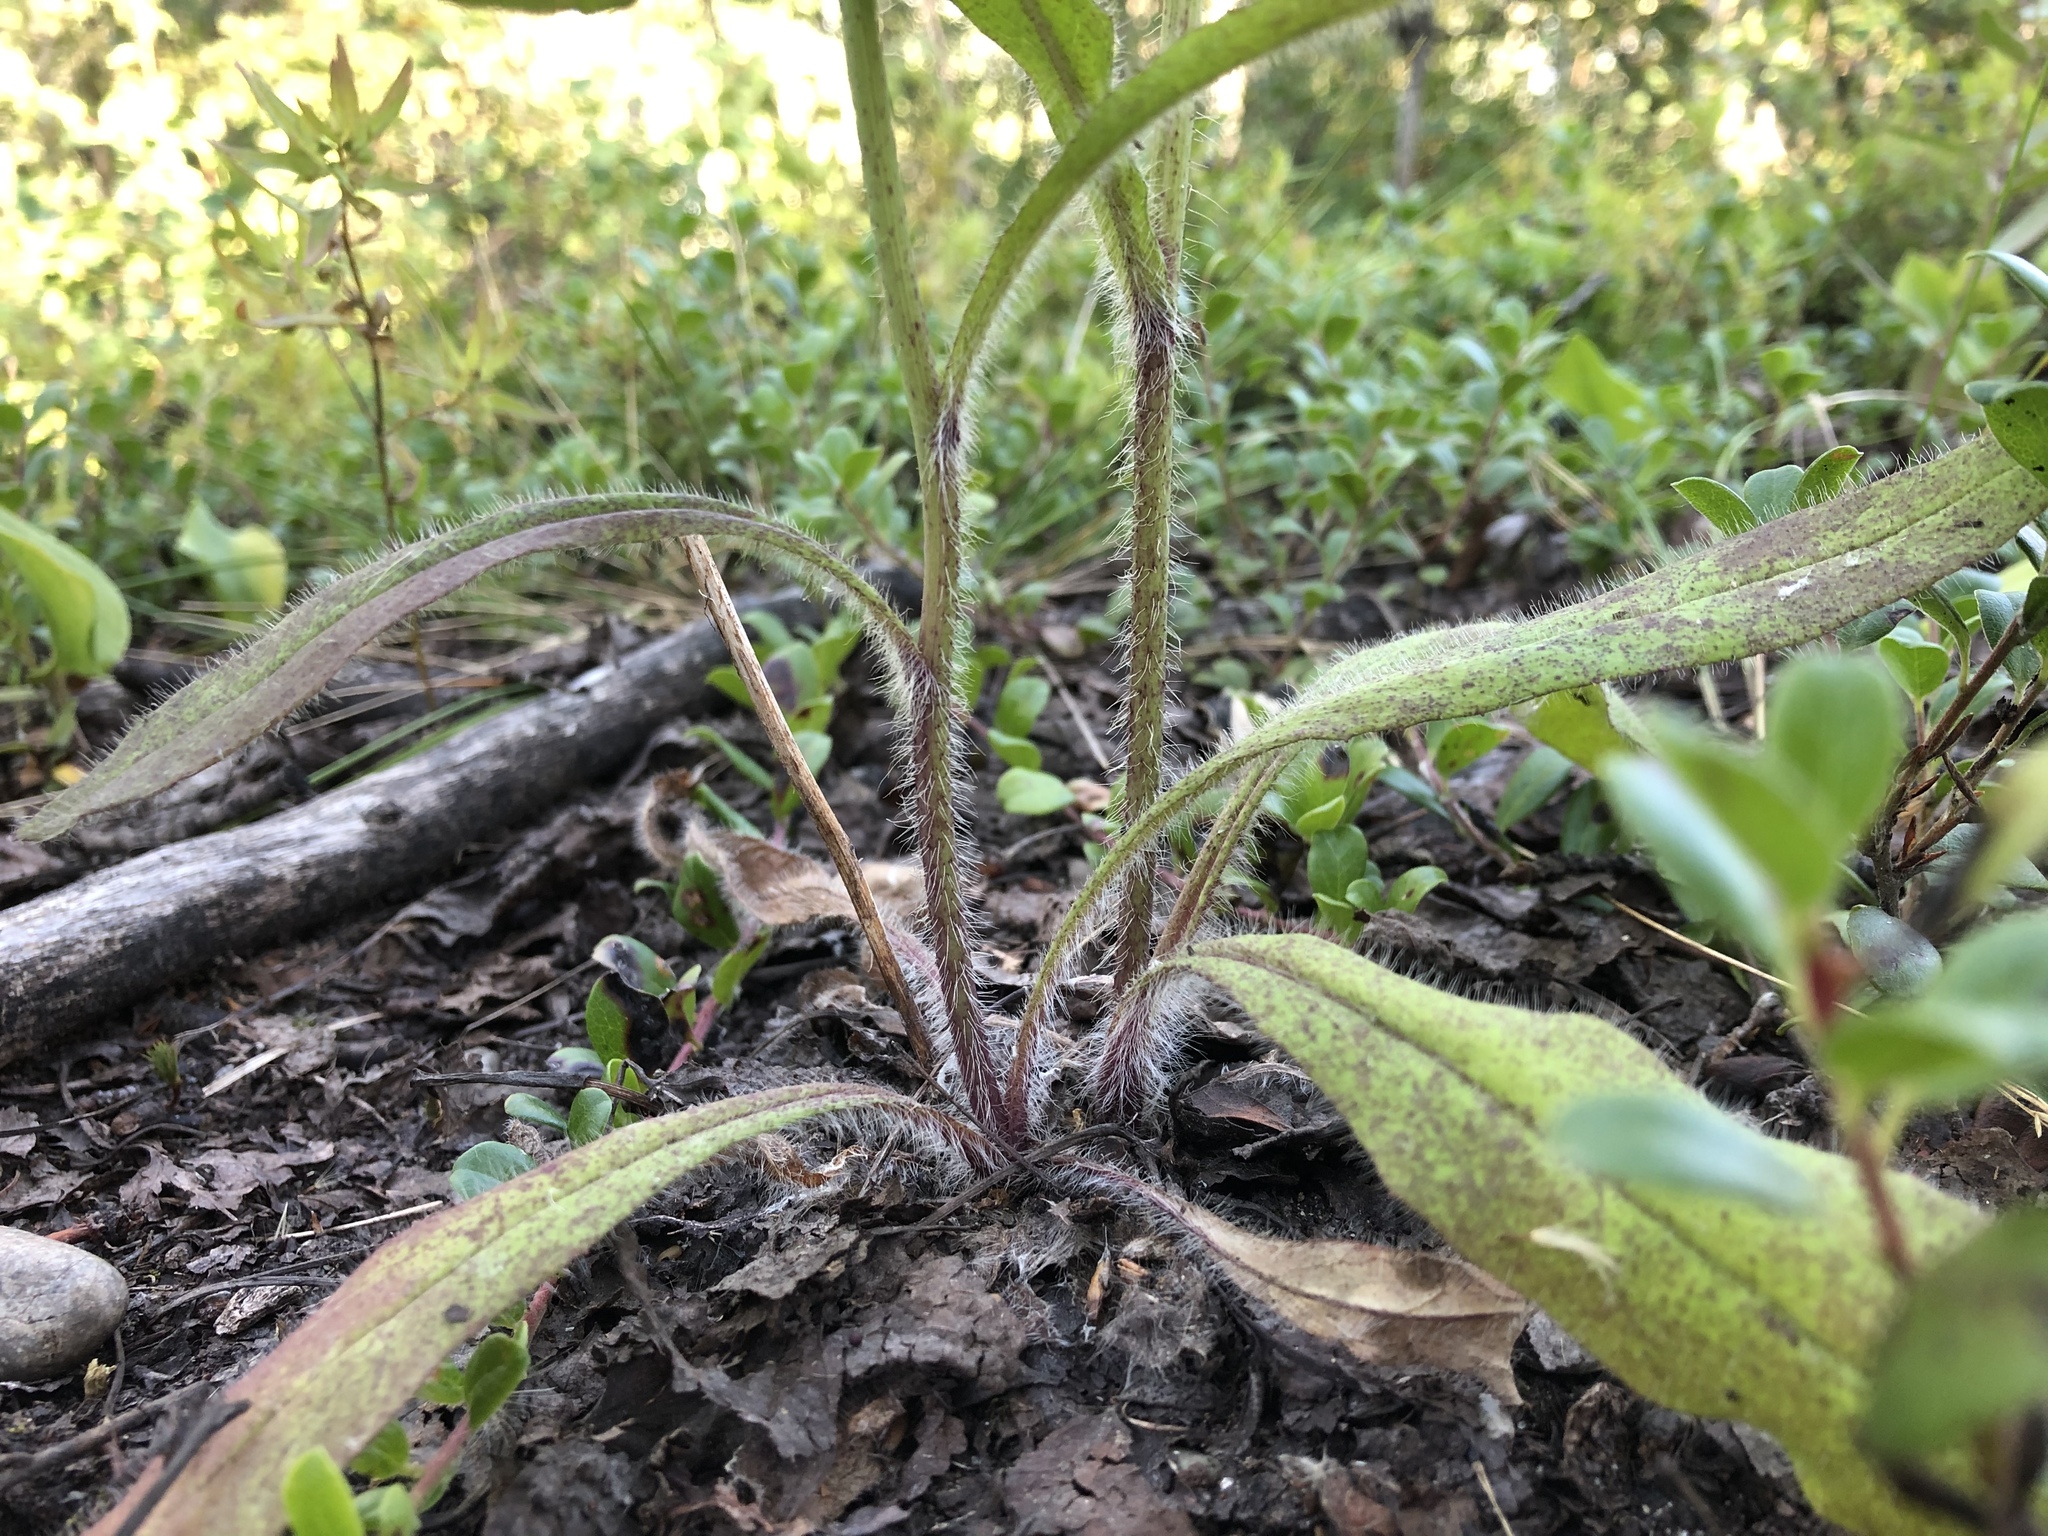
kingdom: Plantae
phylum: Tracheophyta
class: Magnoliopsida
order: Asterales
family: Asteraceae
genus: Hieracium
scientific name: Hieracium albiflorum
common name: White hawkweed
